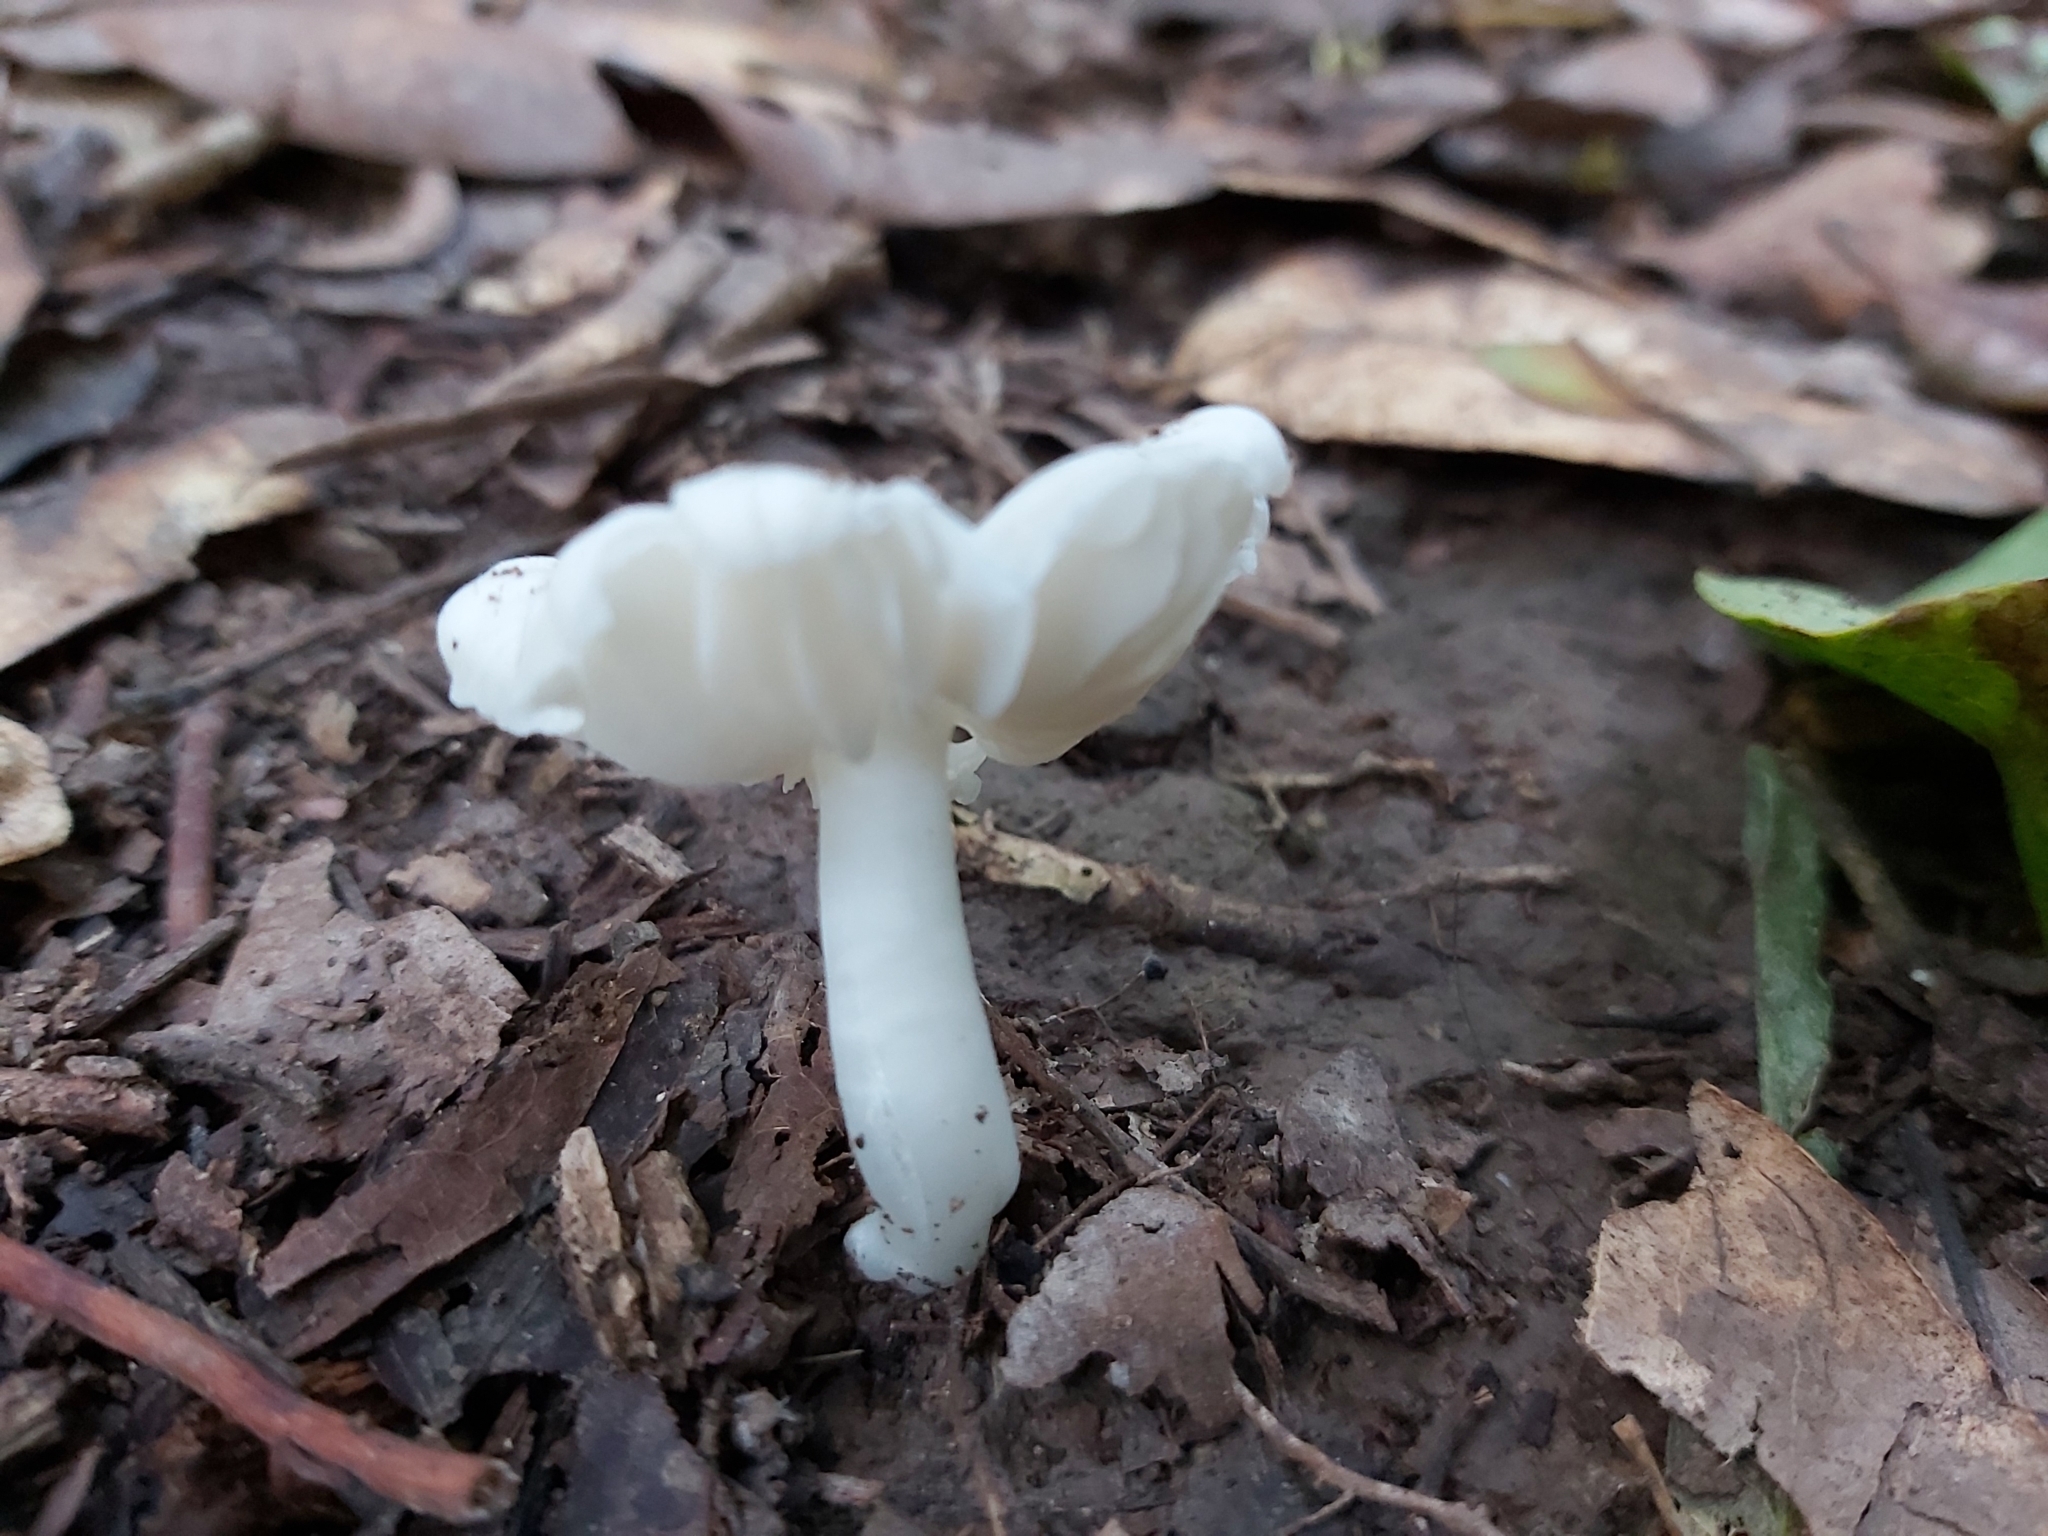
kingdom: Fungi
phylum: Basidiomycota
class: Agaricomycetes
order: Agaricales
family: Hygrophoraceae
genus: Humidicutis
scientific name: Humidicutis mavis
